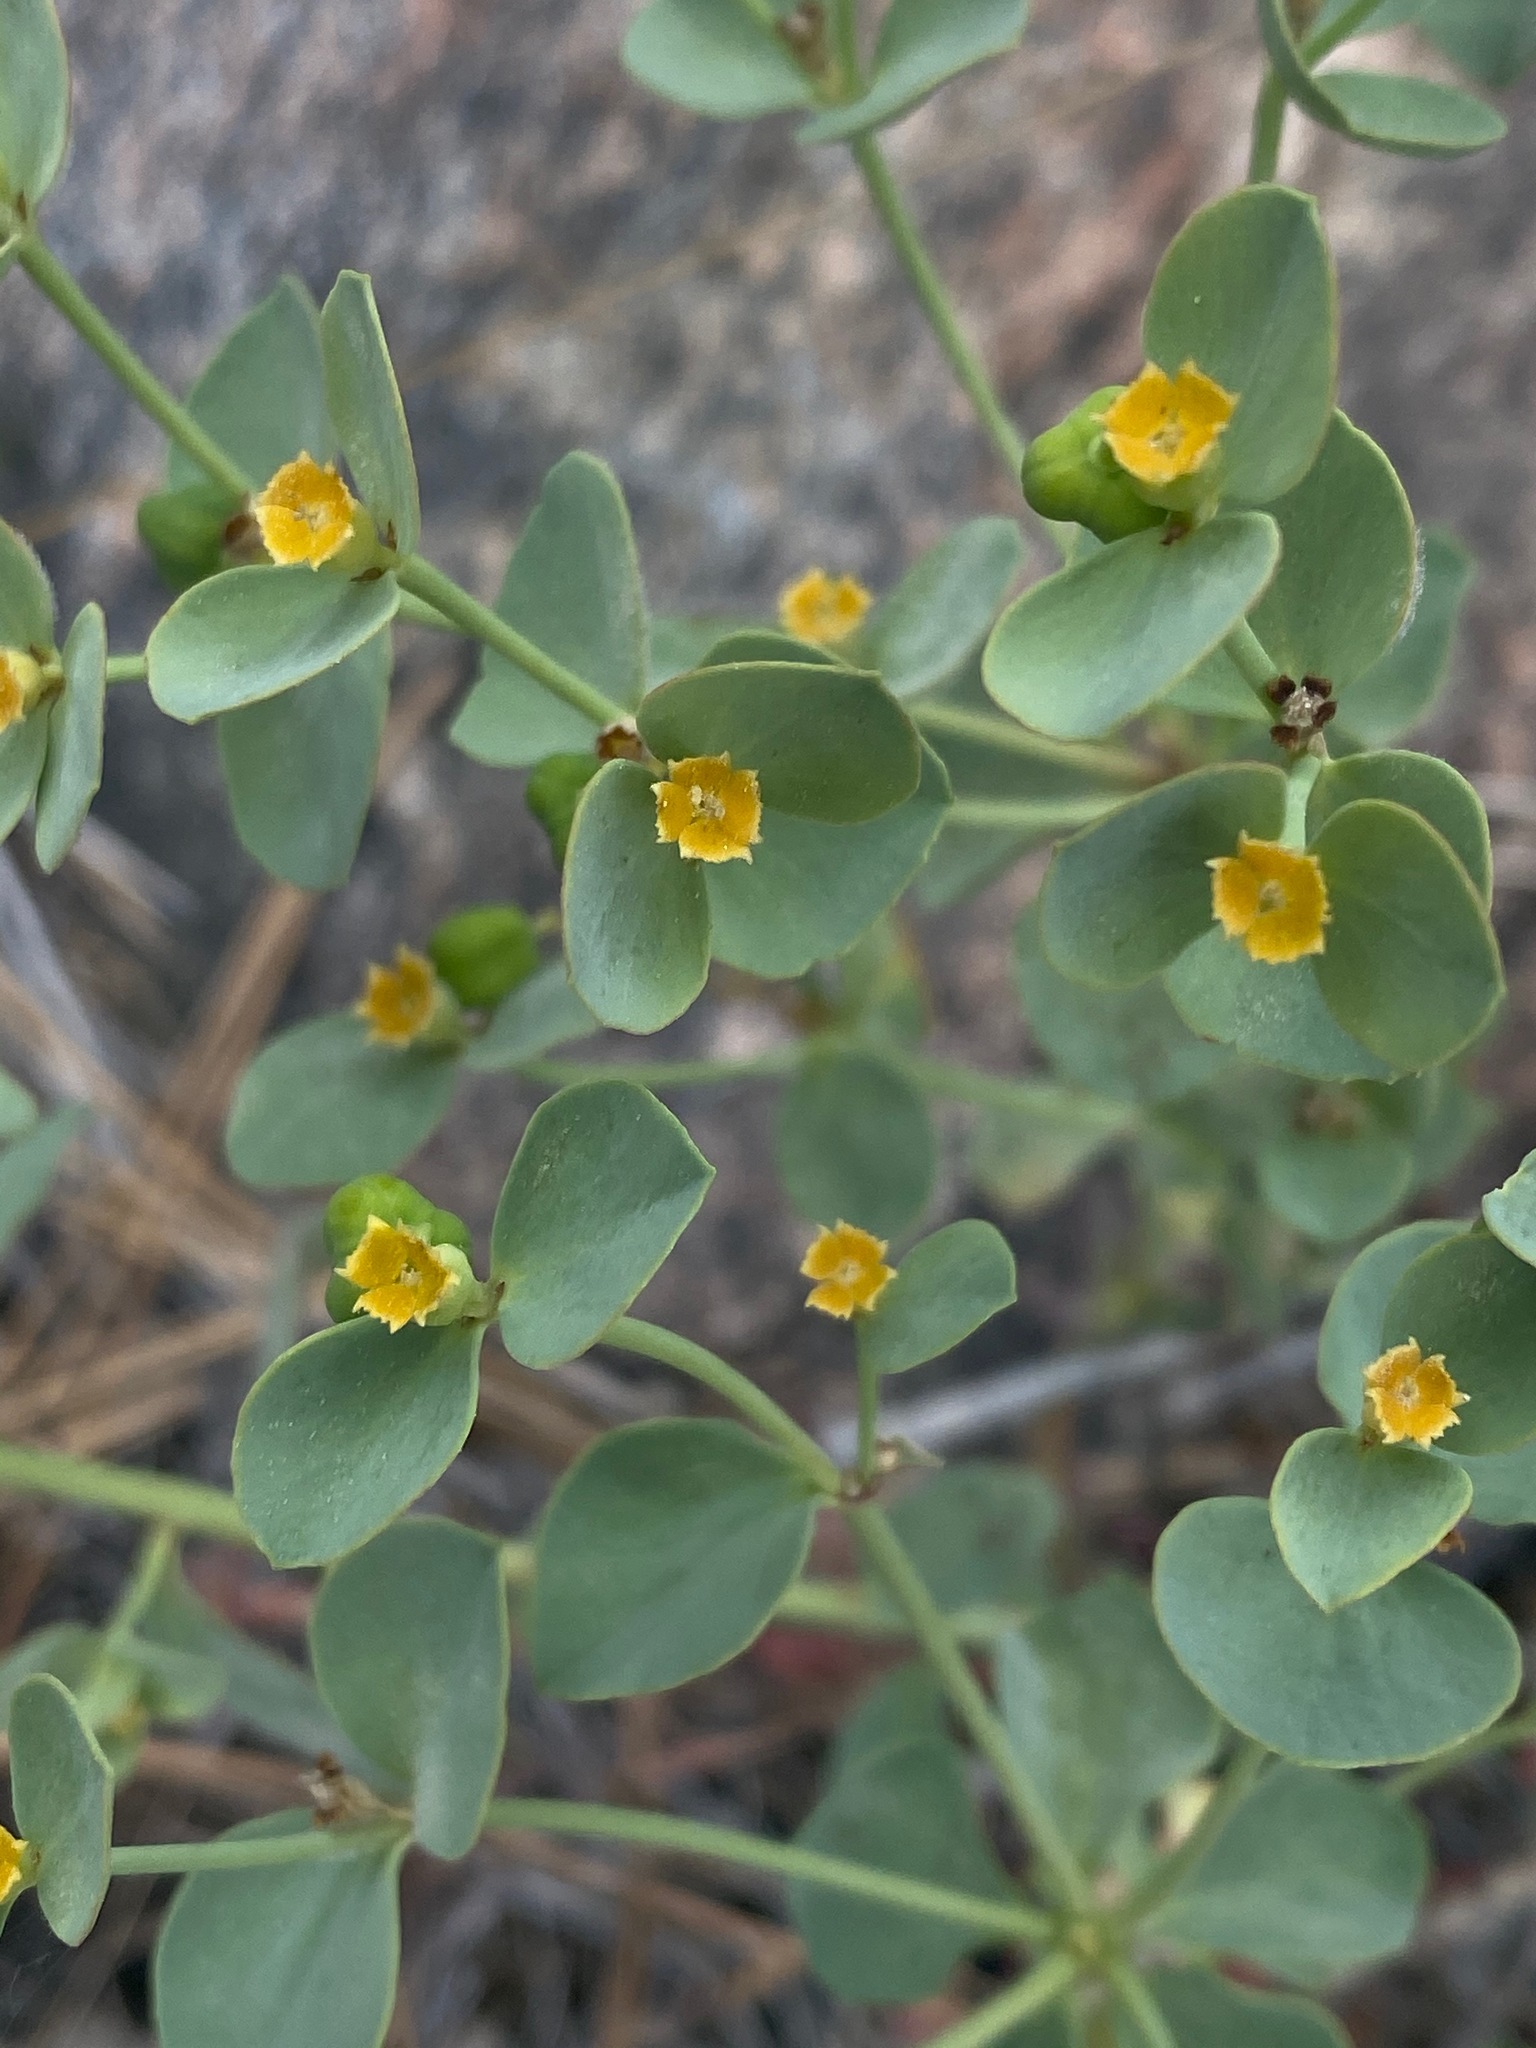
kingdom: Plantae
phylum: Tracheophyta
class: Magnoliopsida
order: Malpighiales
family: Euphorbiaceae
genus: Euphorbia
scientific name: Euphorbia lurida
